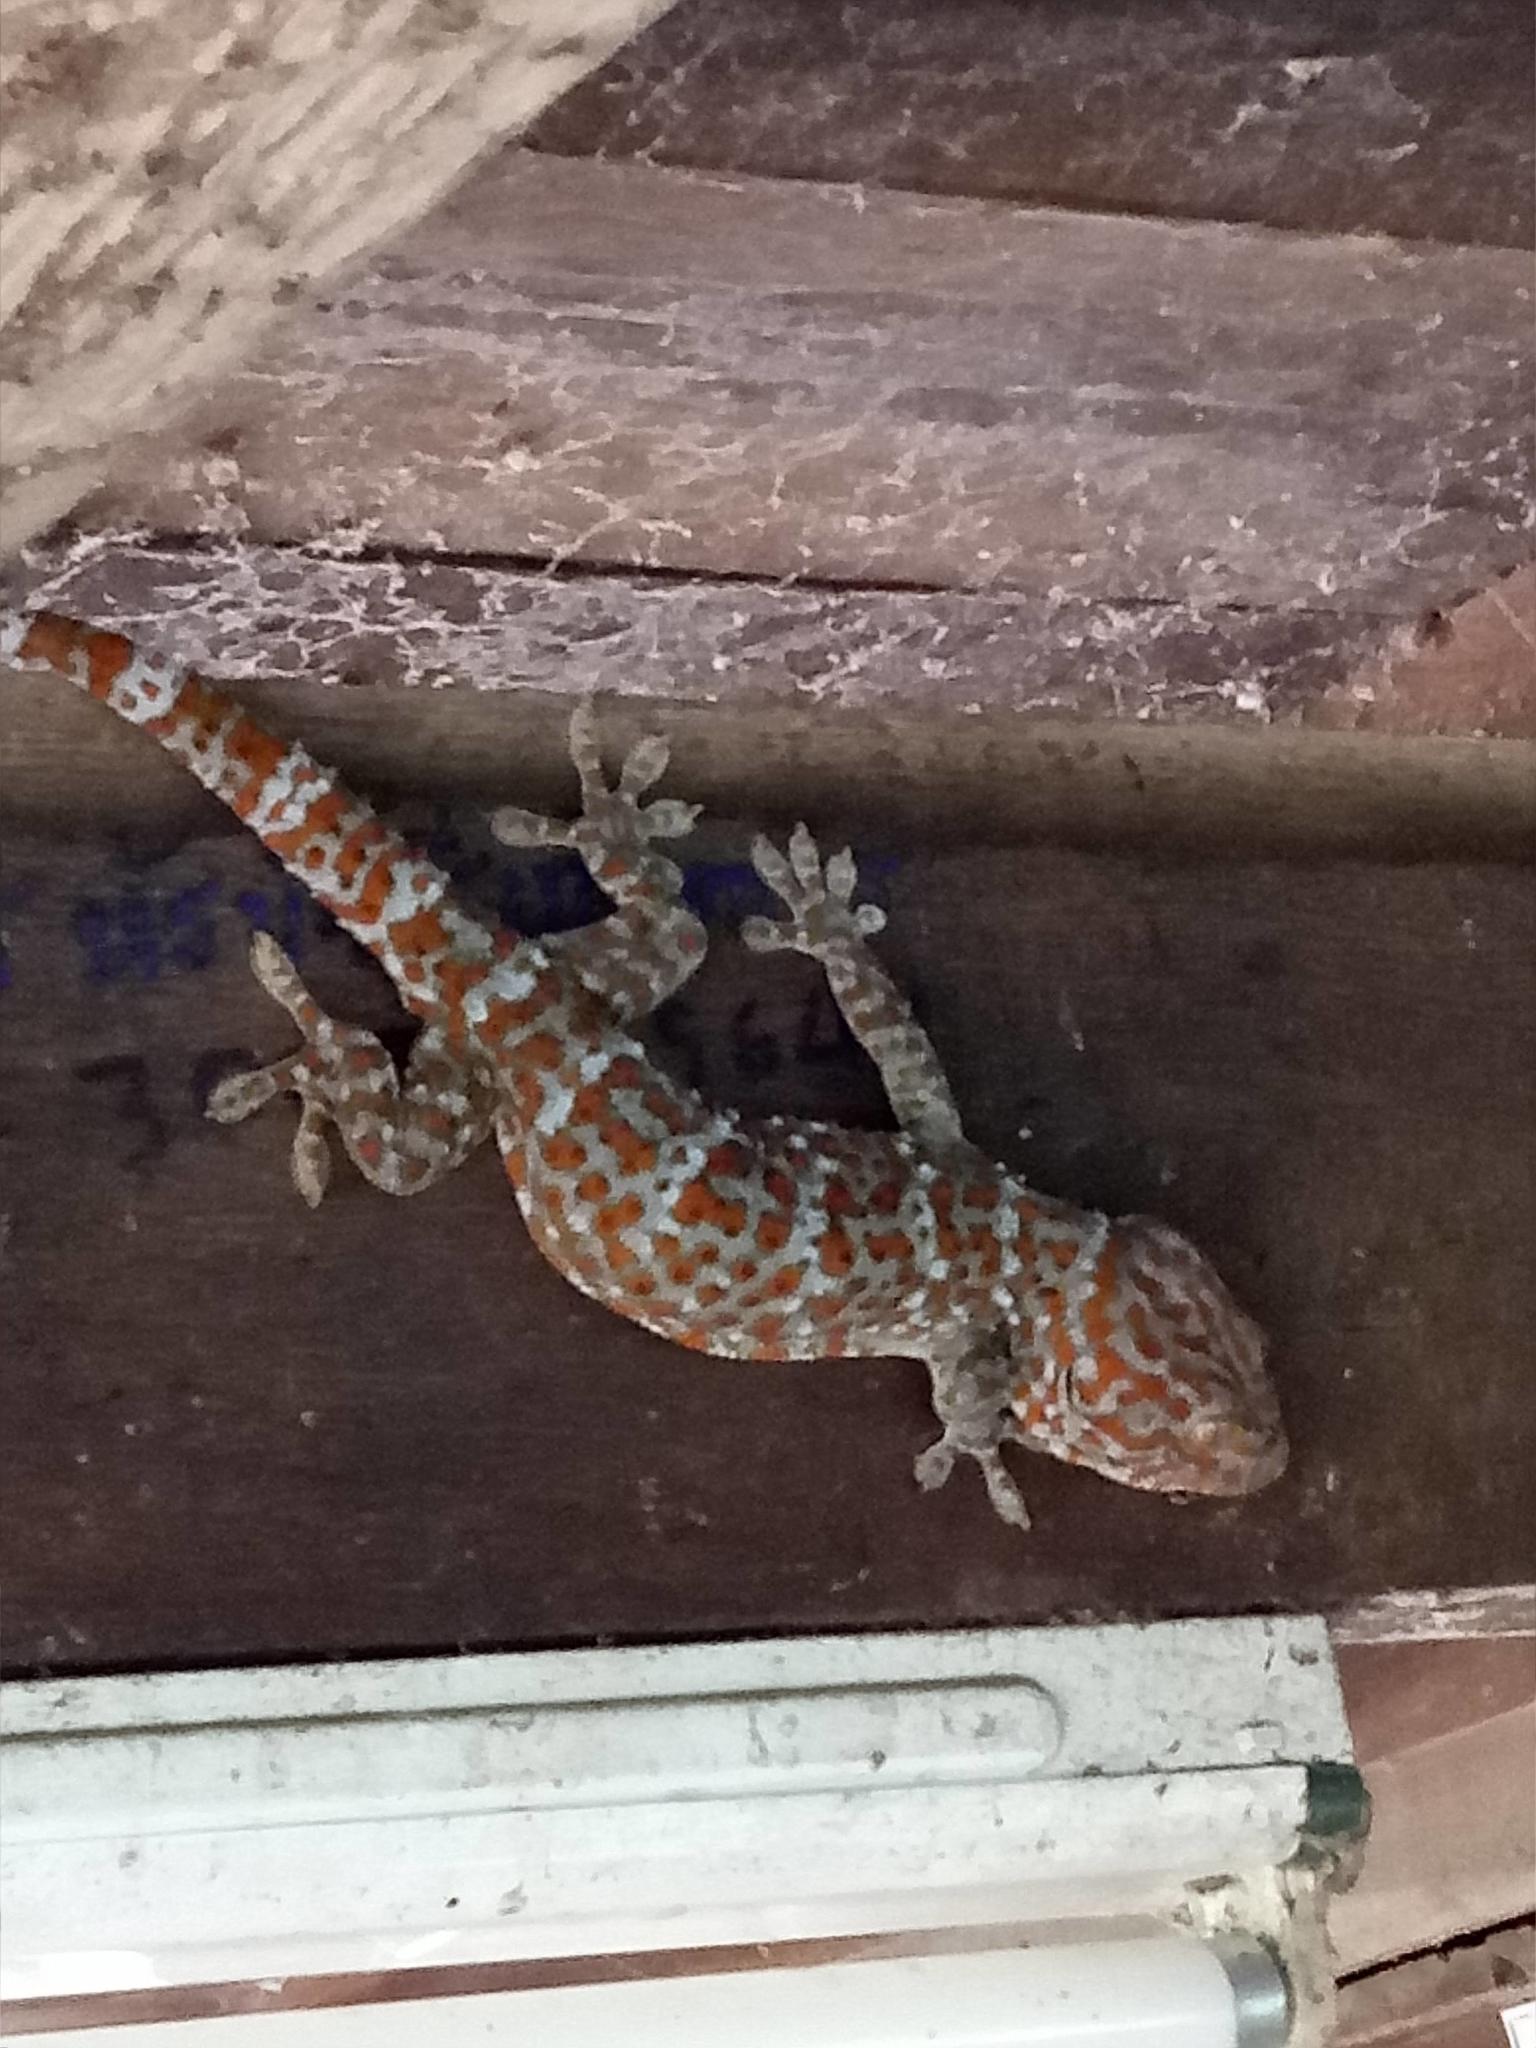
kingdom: Animalia
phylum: Chordata
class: Squamata
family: Gekkonidae
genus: Gekko
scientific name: Gekko gecko
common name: Tokay gecko
